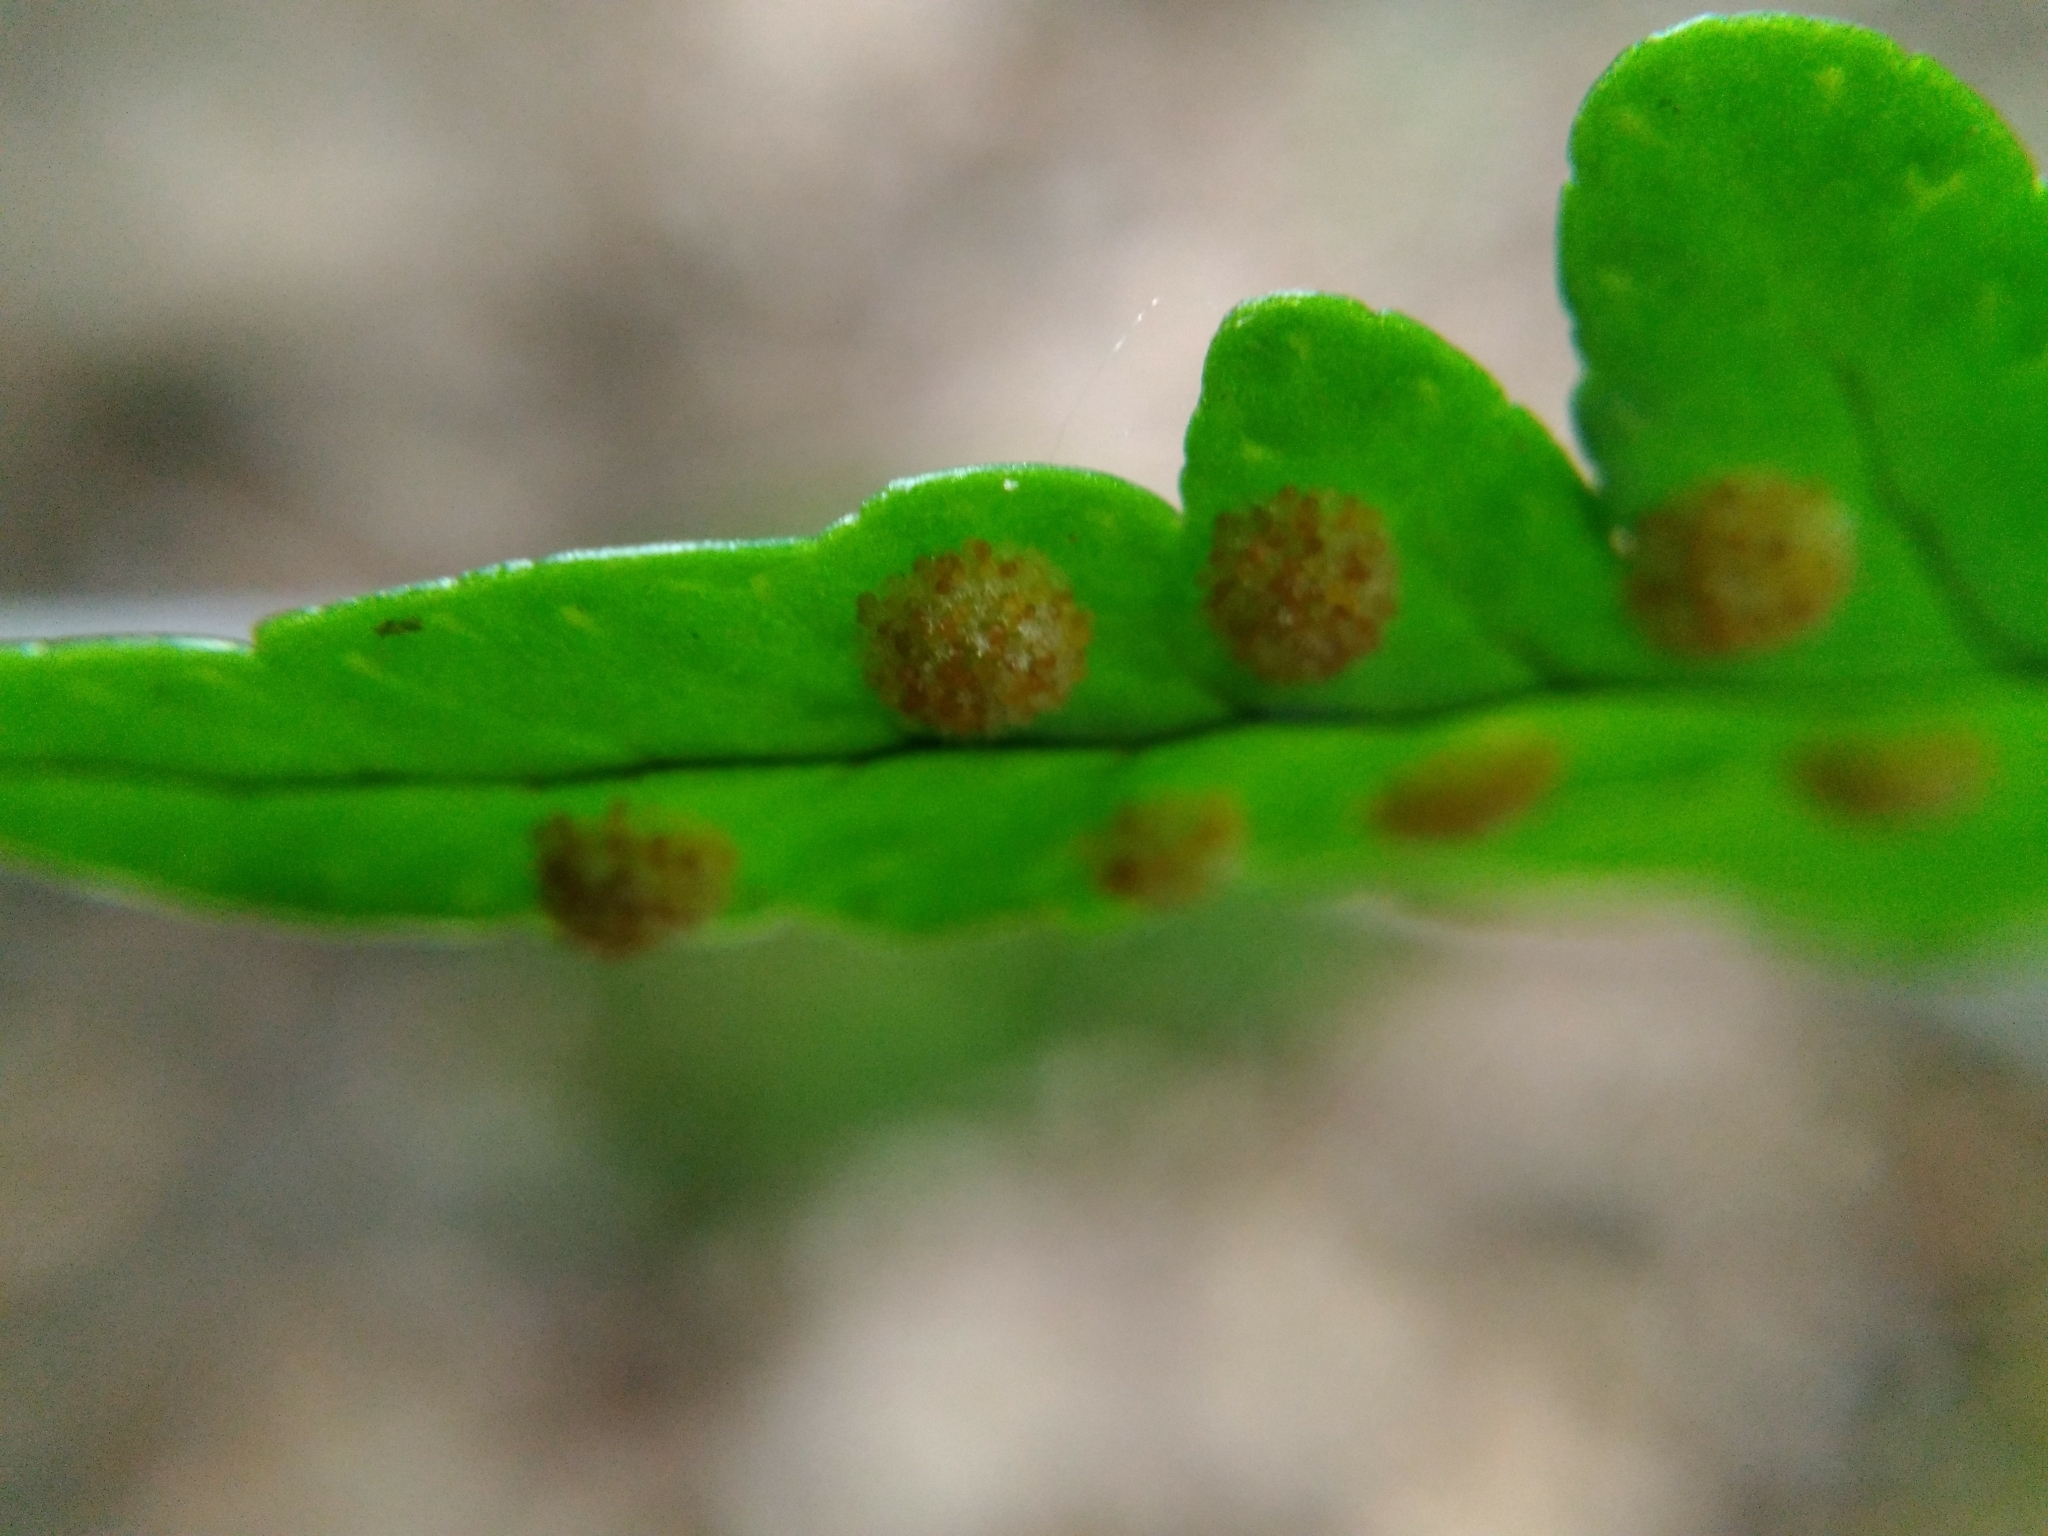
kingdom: Plantae
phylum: Tracheophyta
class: Polypodiopsida
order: Polypodiales
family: Polypodiaceae
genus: Polypodium
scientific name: Polypodium virginianum
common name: American wall fern
